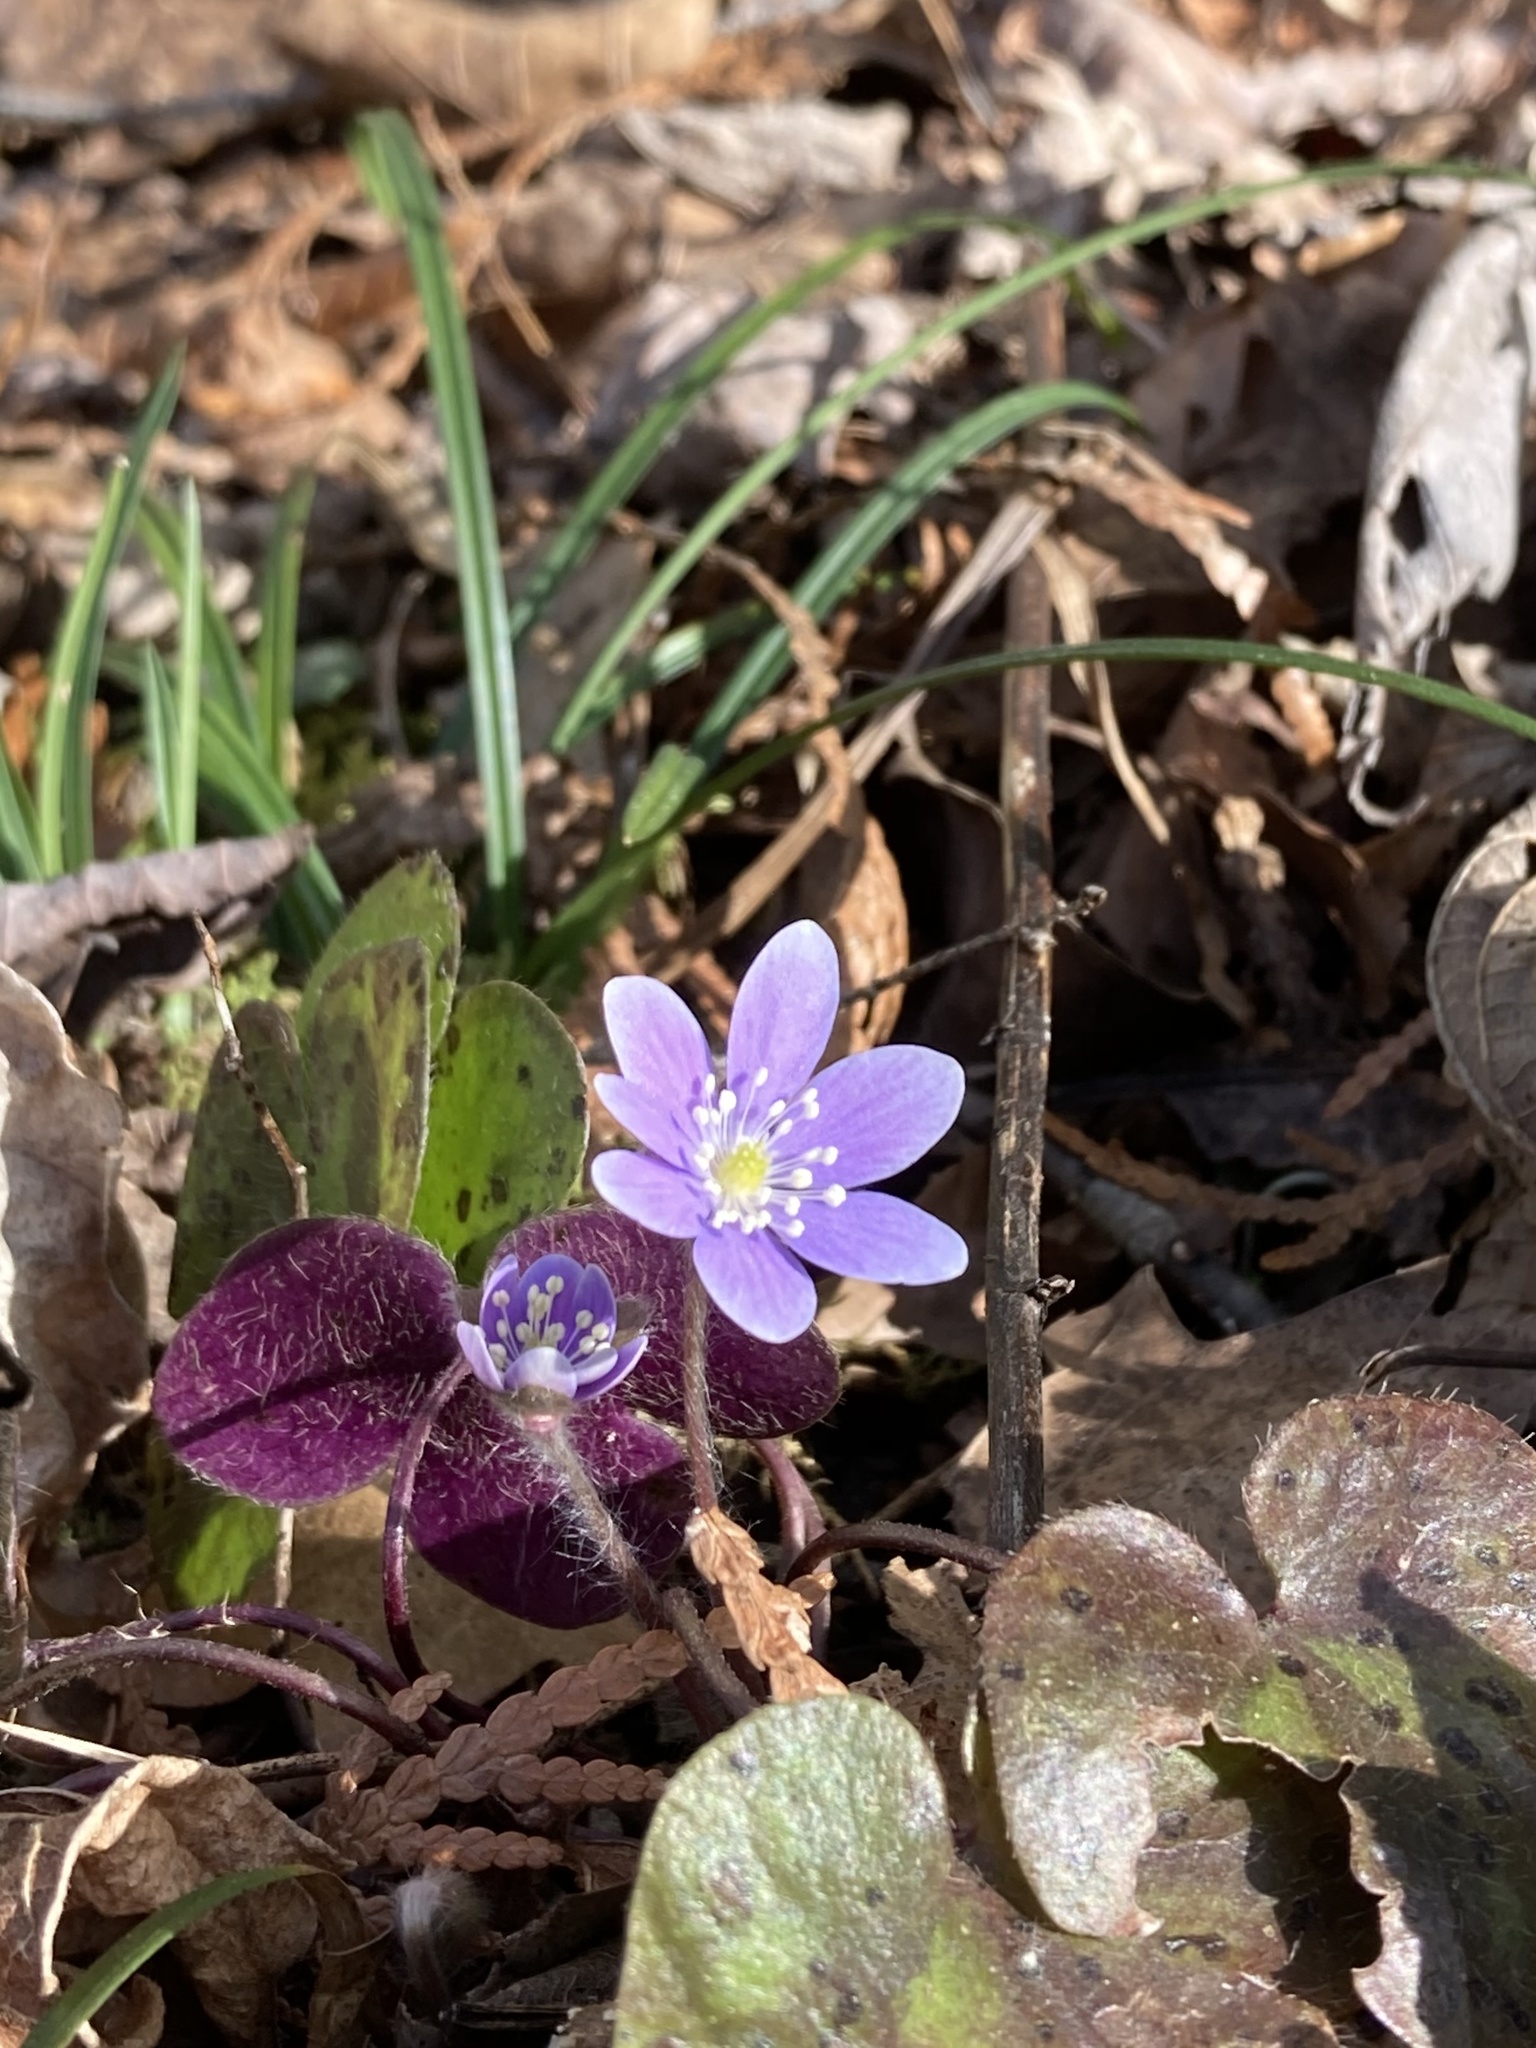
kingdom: Plantae
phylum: Tracheophyta
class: Magnoliopsida
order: Ranunculales
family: Ranunculaceae
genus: Hepatica
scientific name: Hepatica americana
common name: American hepatica
